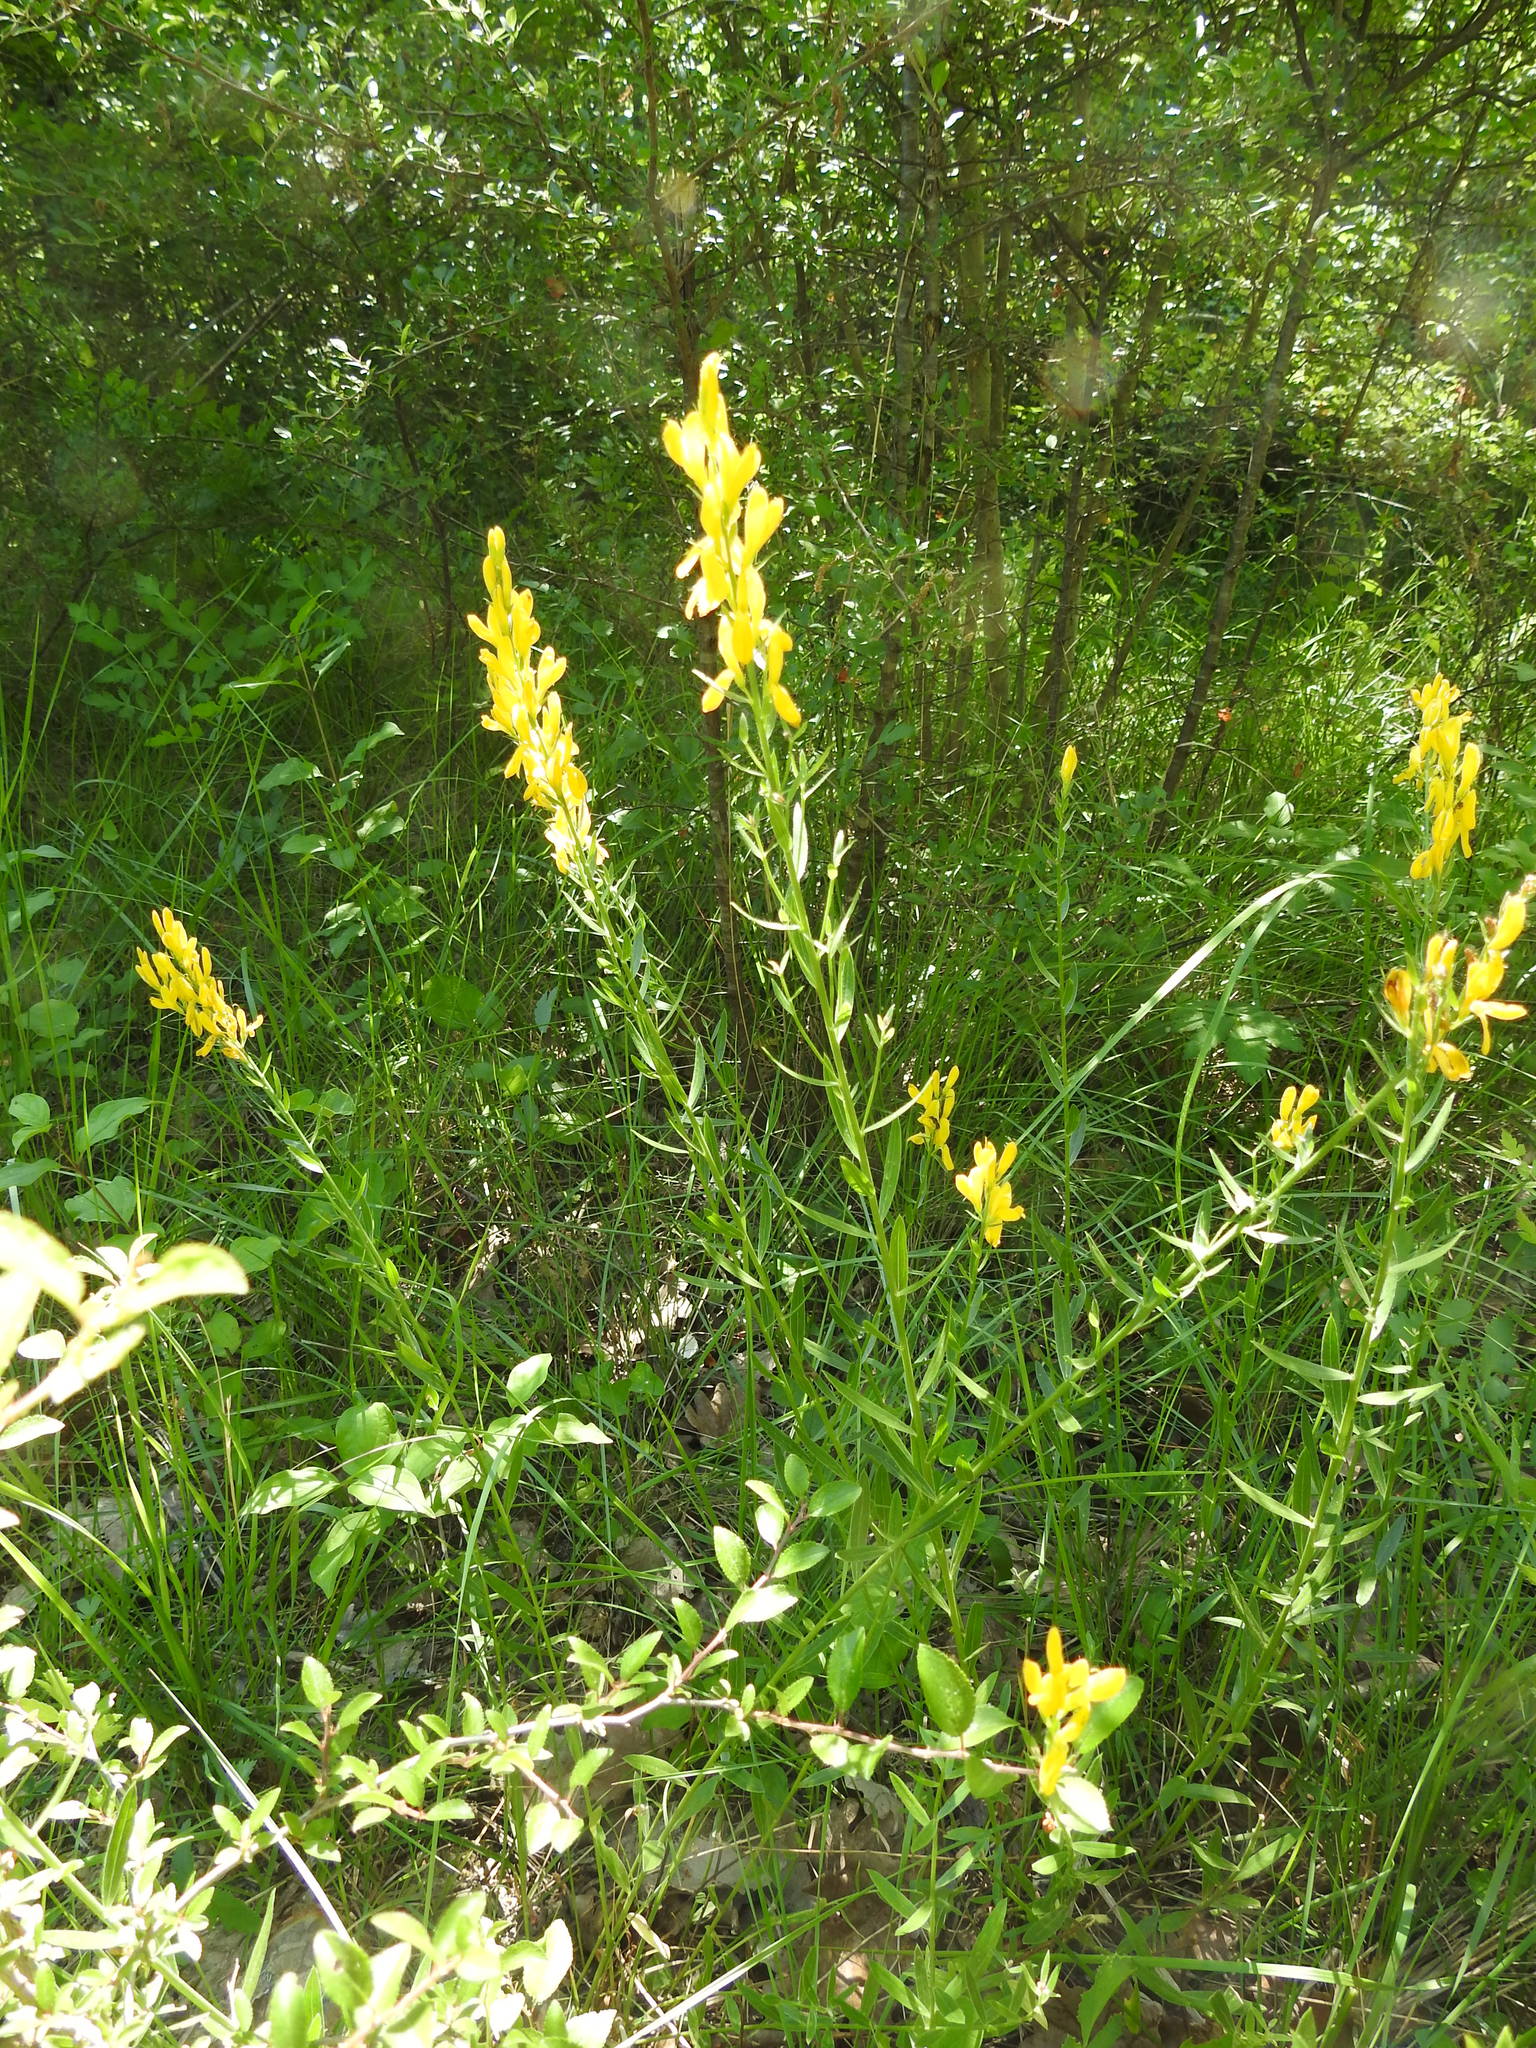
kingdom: Plantae
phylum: Tracheophyta
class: Magnoliopsida
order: Fabales
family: Fabaceae
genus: Genista
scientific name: Genista tinctoria
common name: Dyer's greenweed
